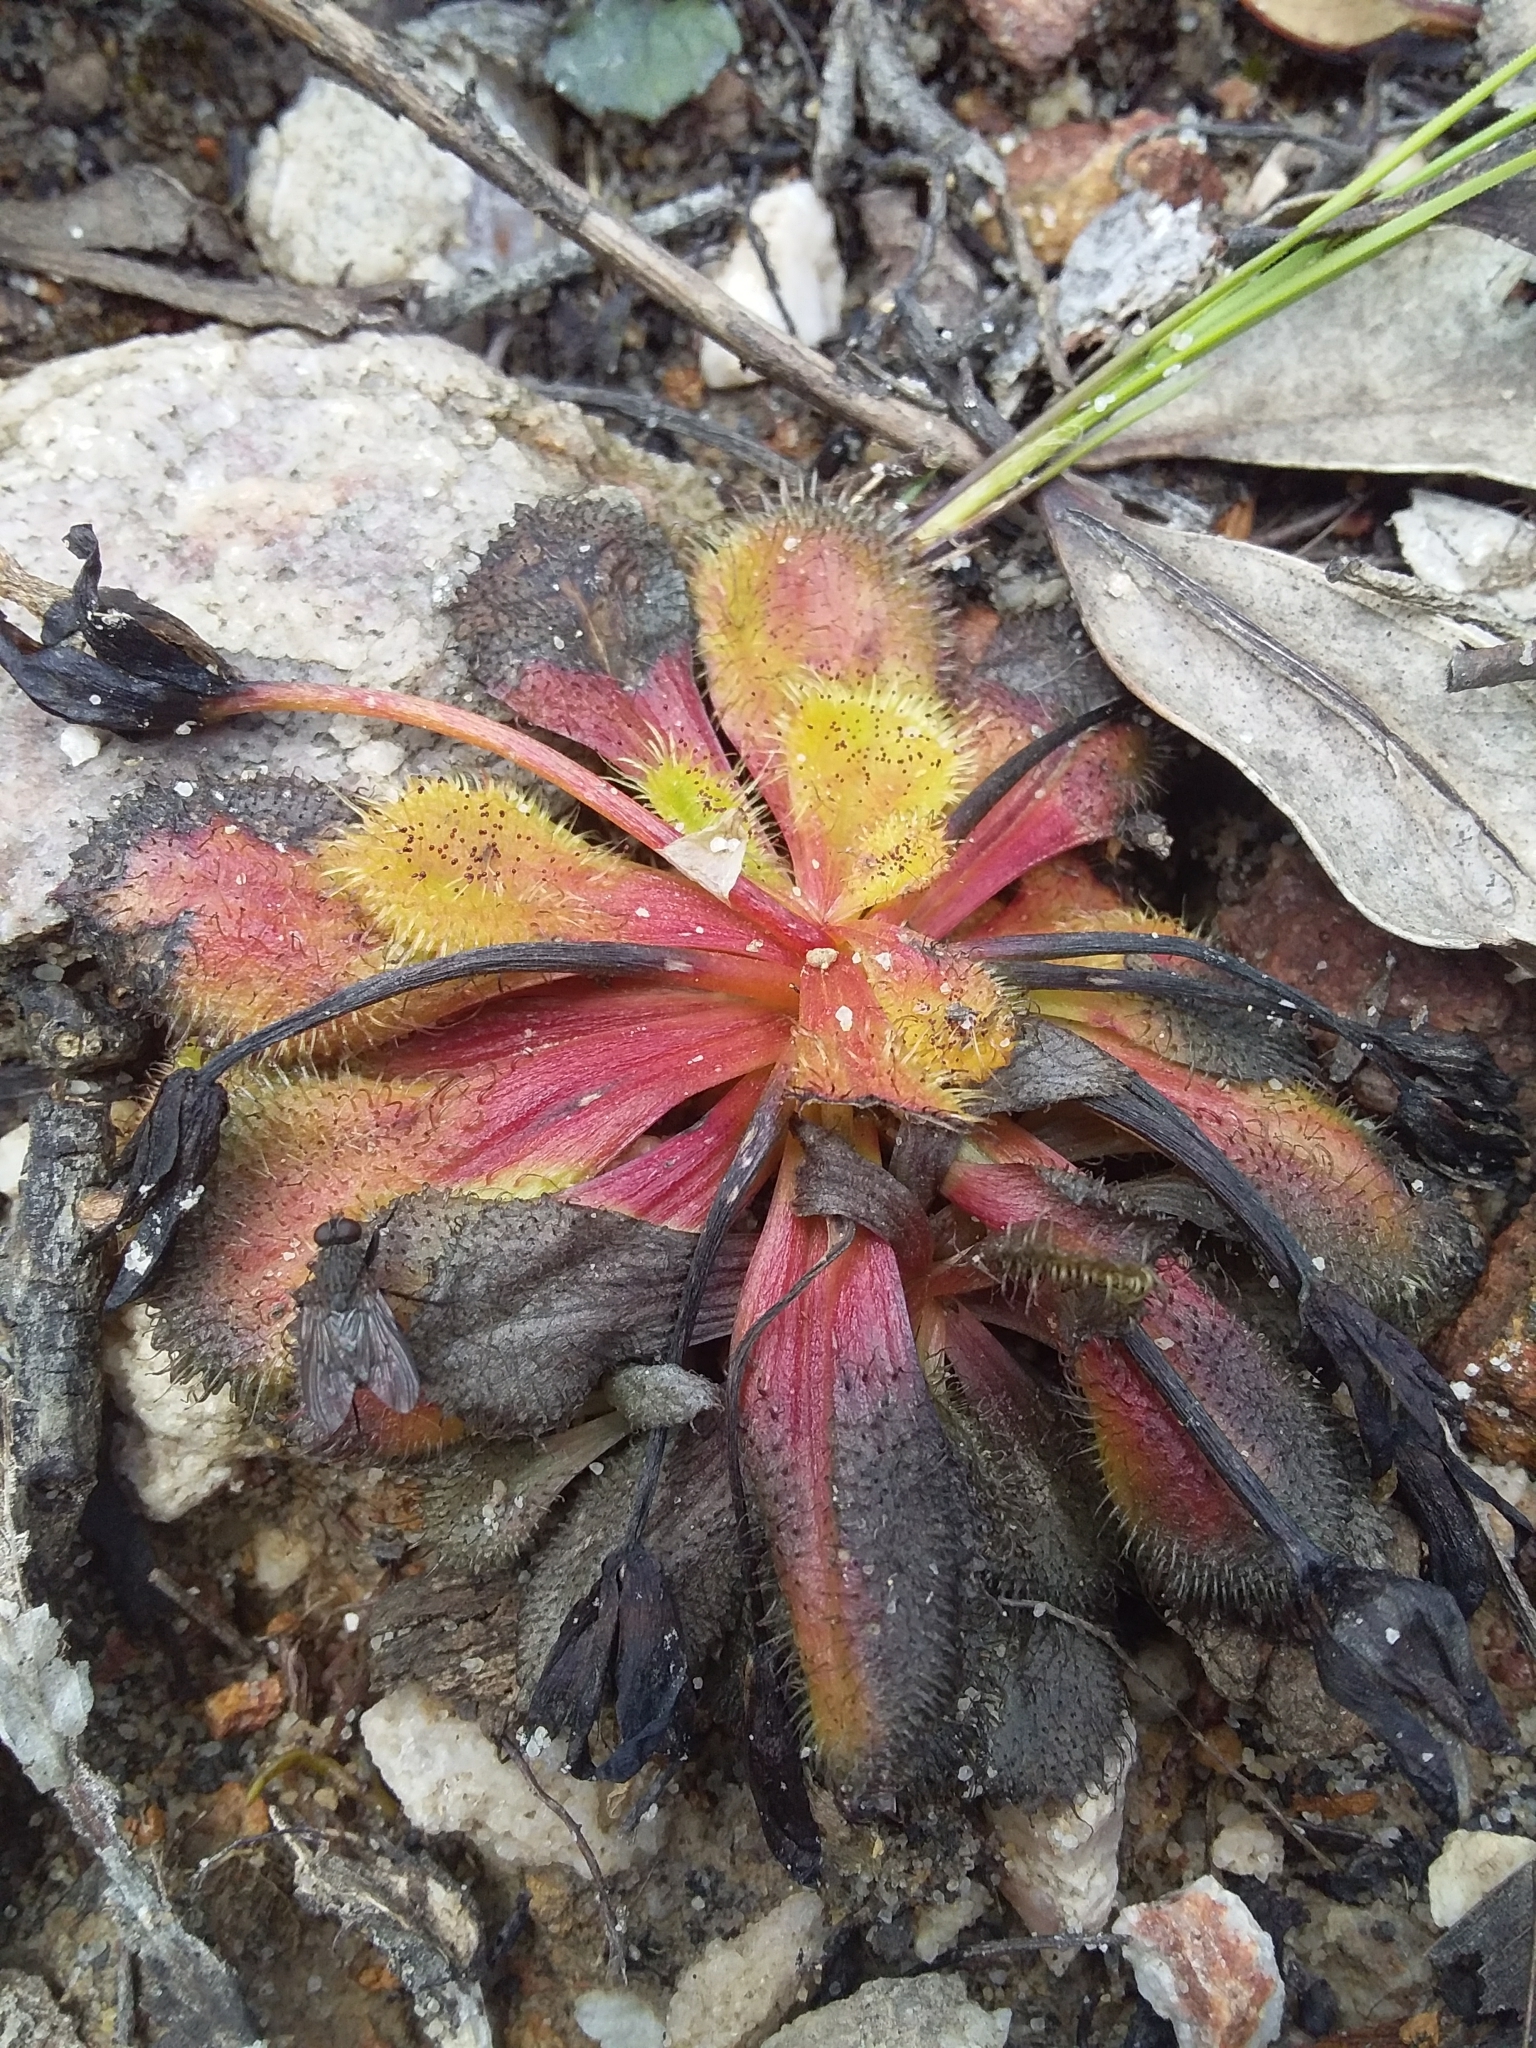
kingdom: Plantae
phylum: Tracheophyta
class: Magnoliopsida
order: Caryophyllales
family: Droseraceae
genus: Drosera
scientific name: Drosera whittakeri
